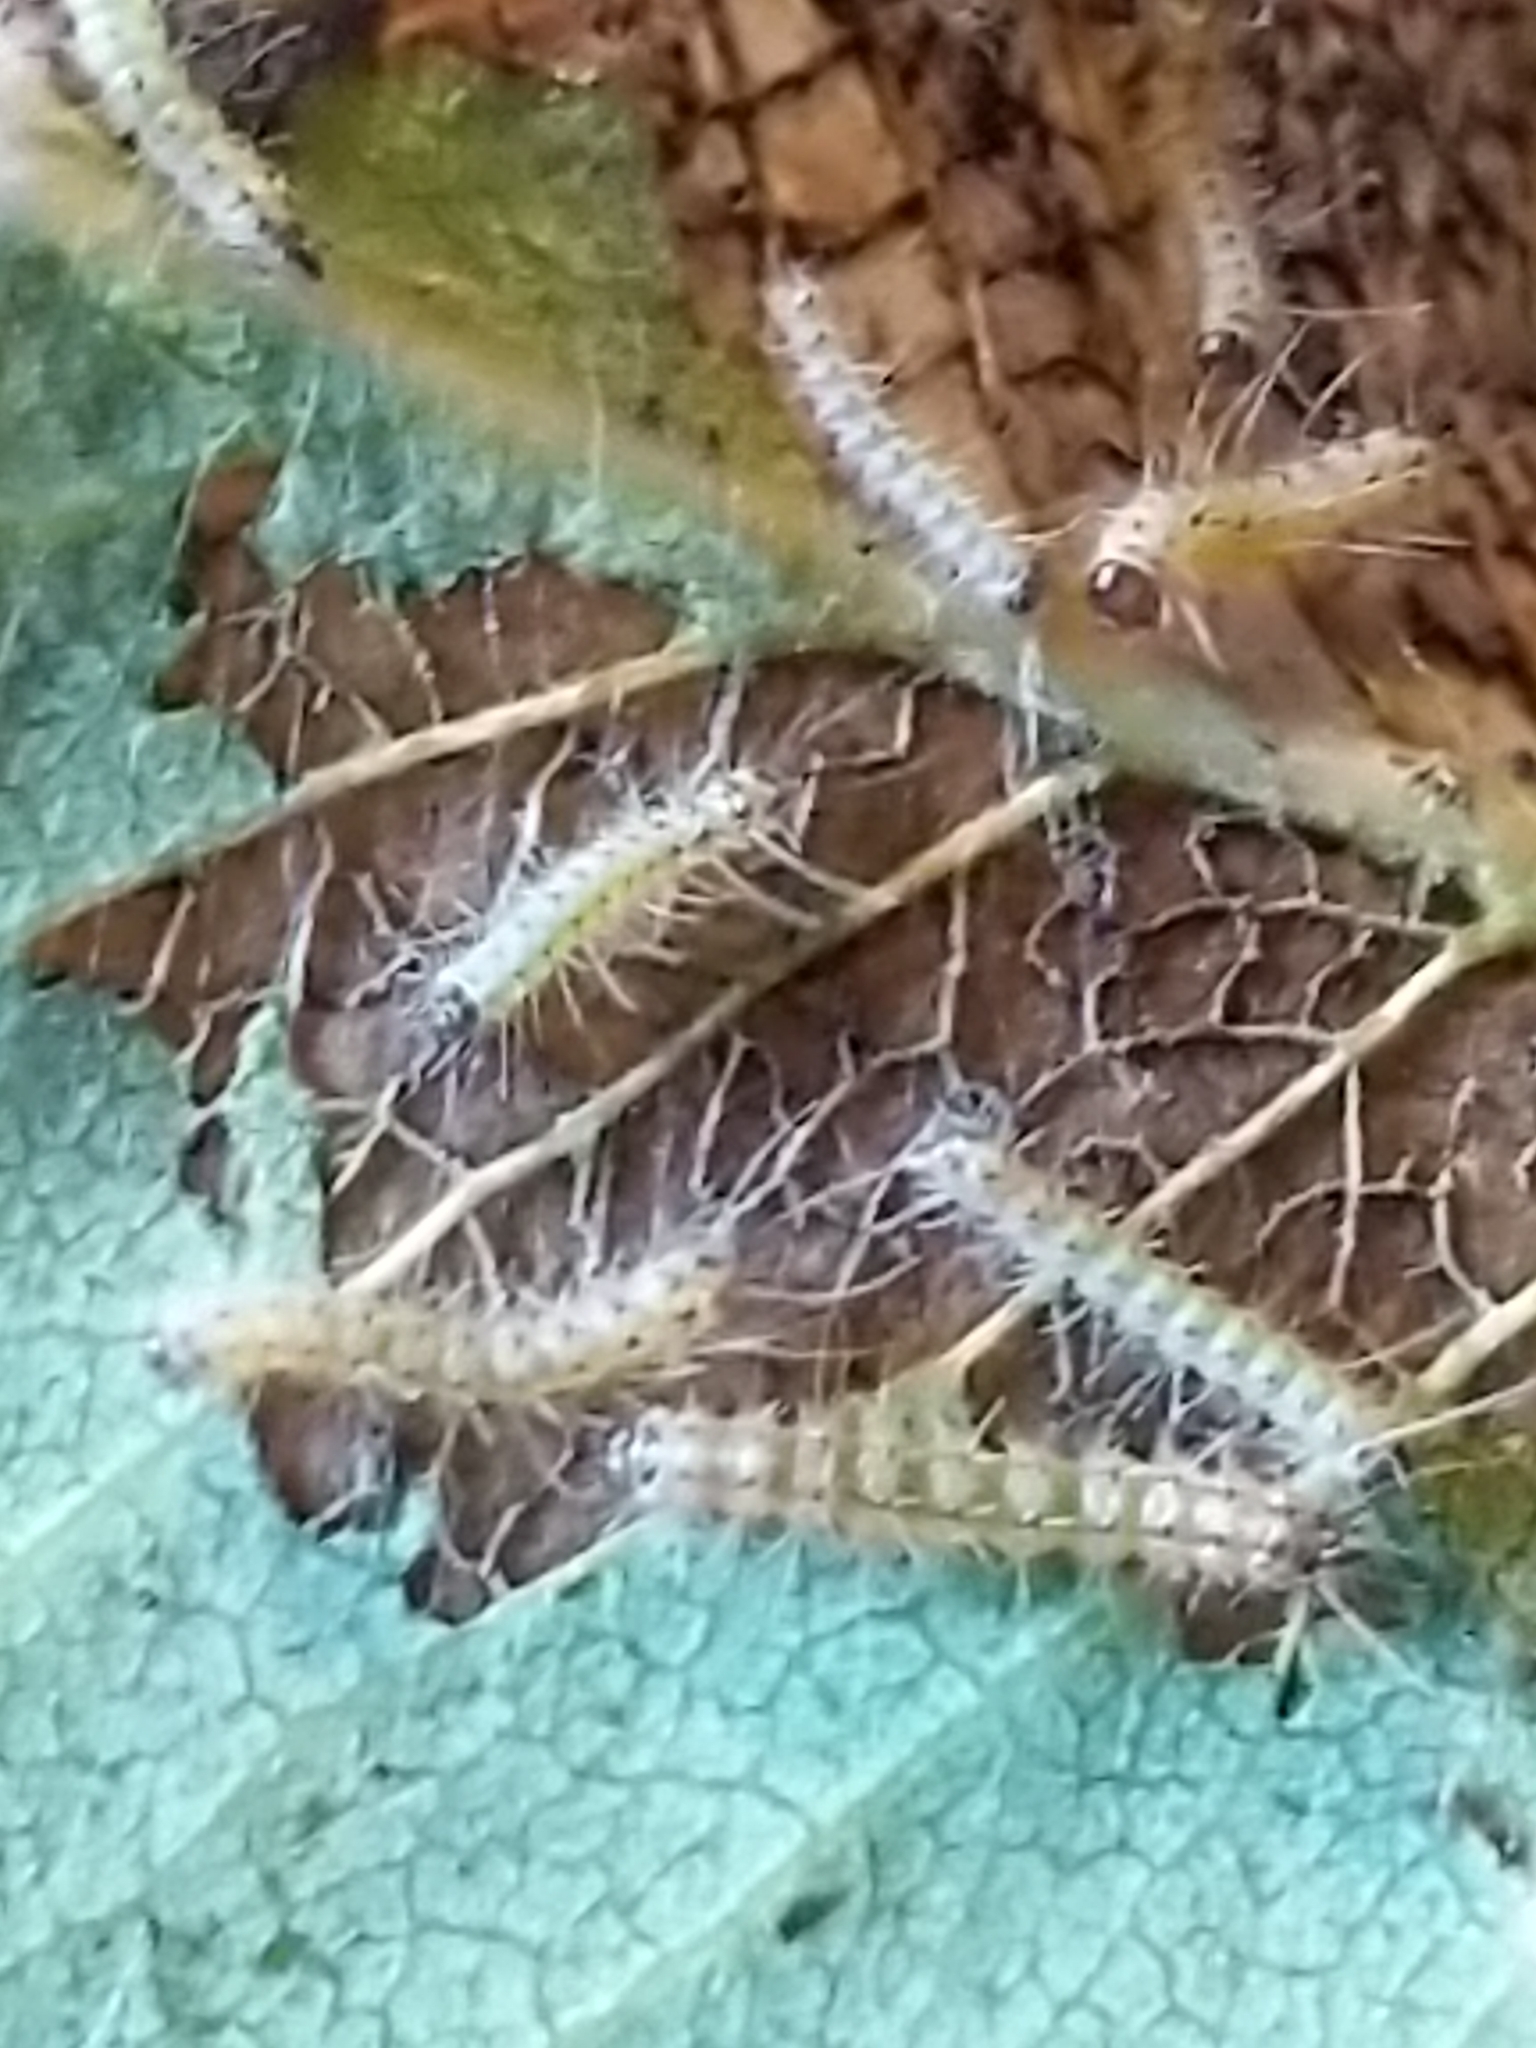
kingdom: Animalia
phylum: Arthropoda
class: Insecta
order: Lepidoptera
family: Erebidae
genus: Hyphantria
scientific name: Hyphantria cunea
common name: American white moth
